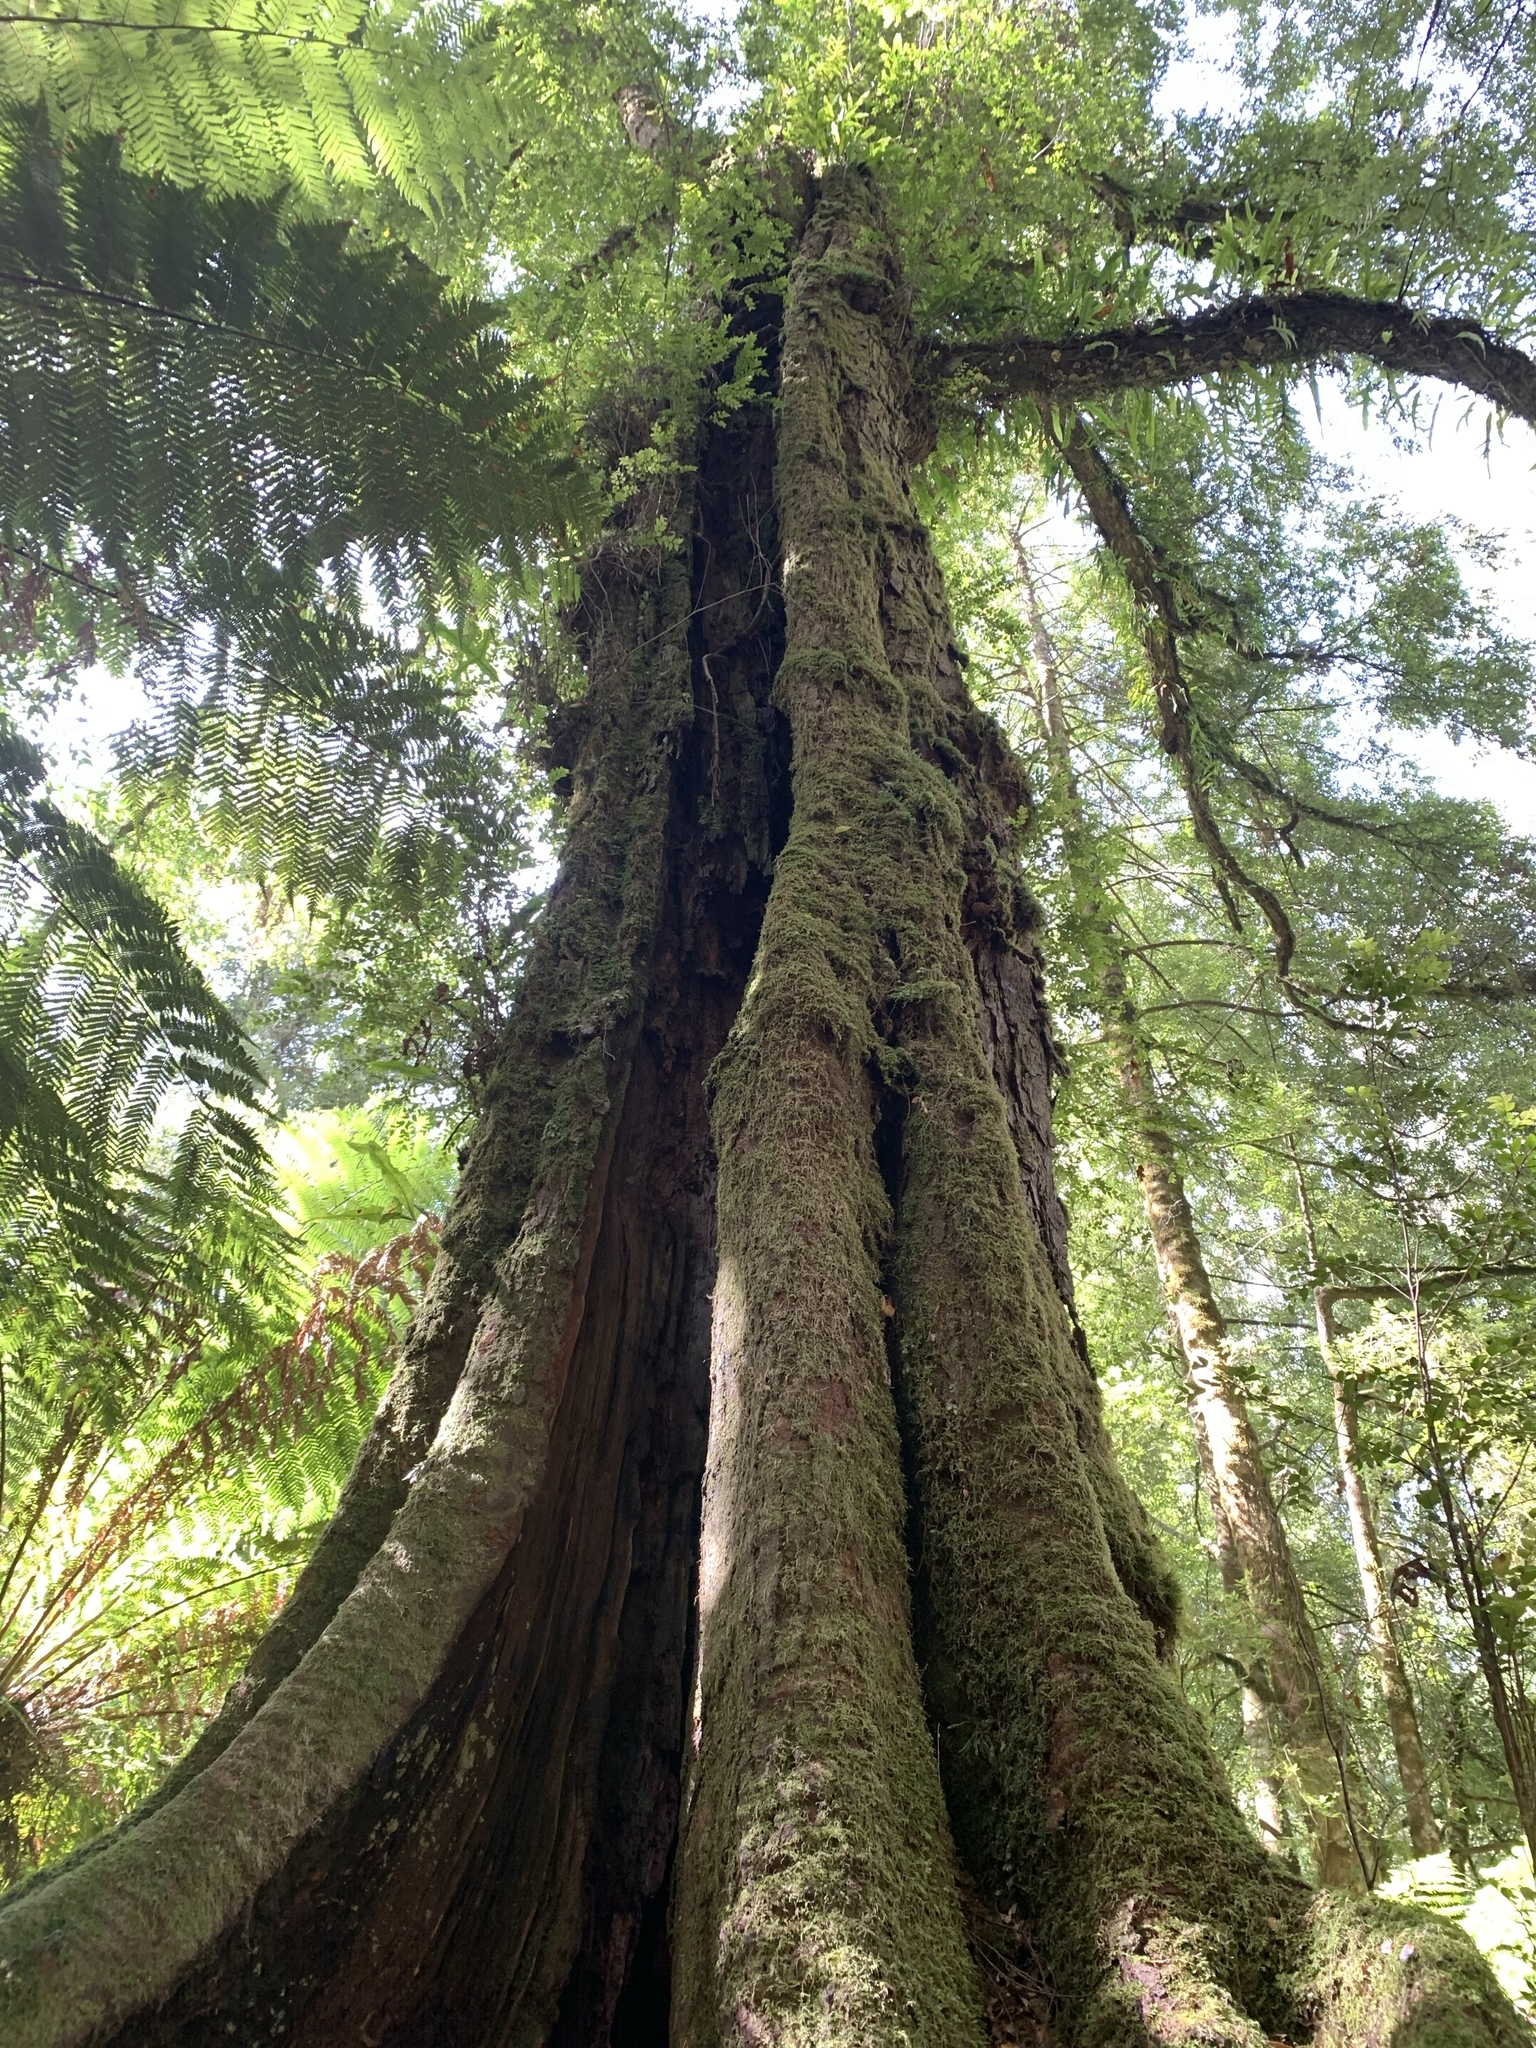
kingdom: Plantae
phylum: Tracheophyta
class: Magnoliopsida
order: Fagales
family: Nothofagaceae
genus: Nothofagus
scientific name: Nothofagus cunninghamii
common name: Myrtle beech
